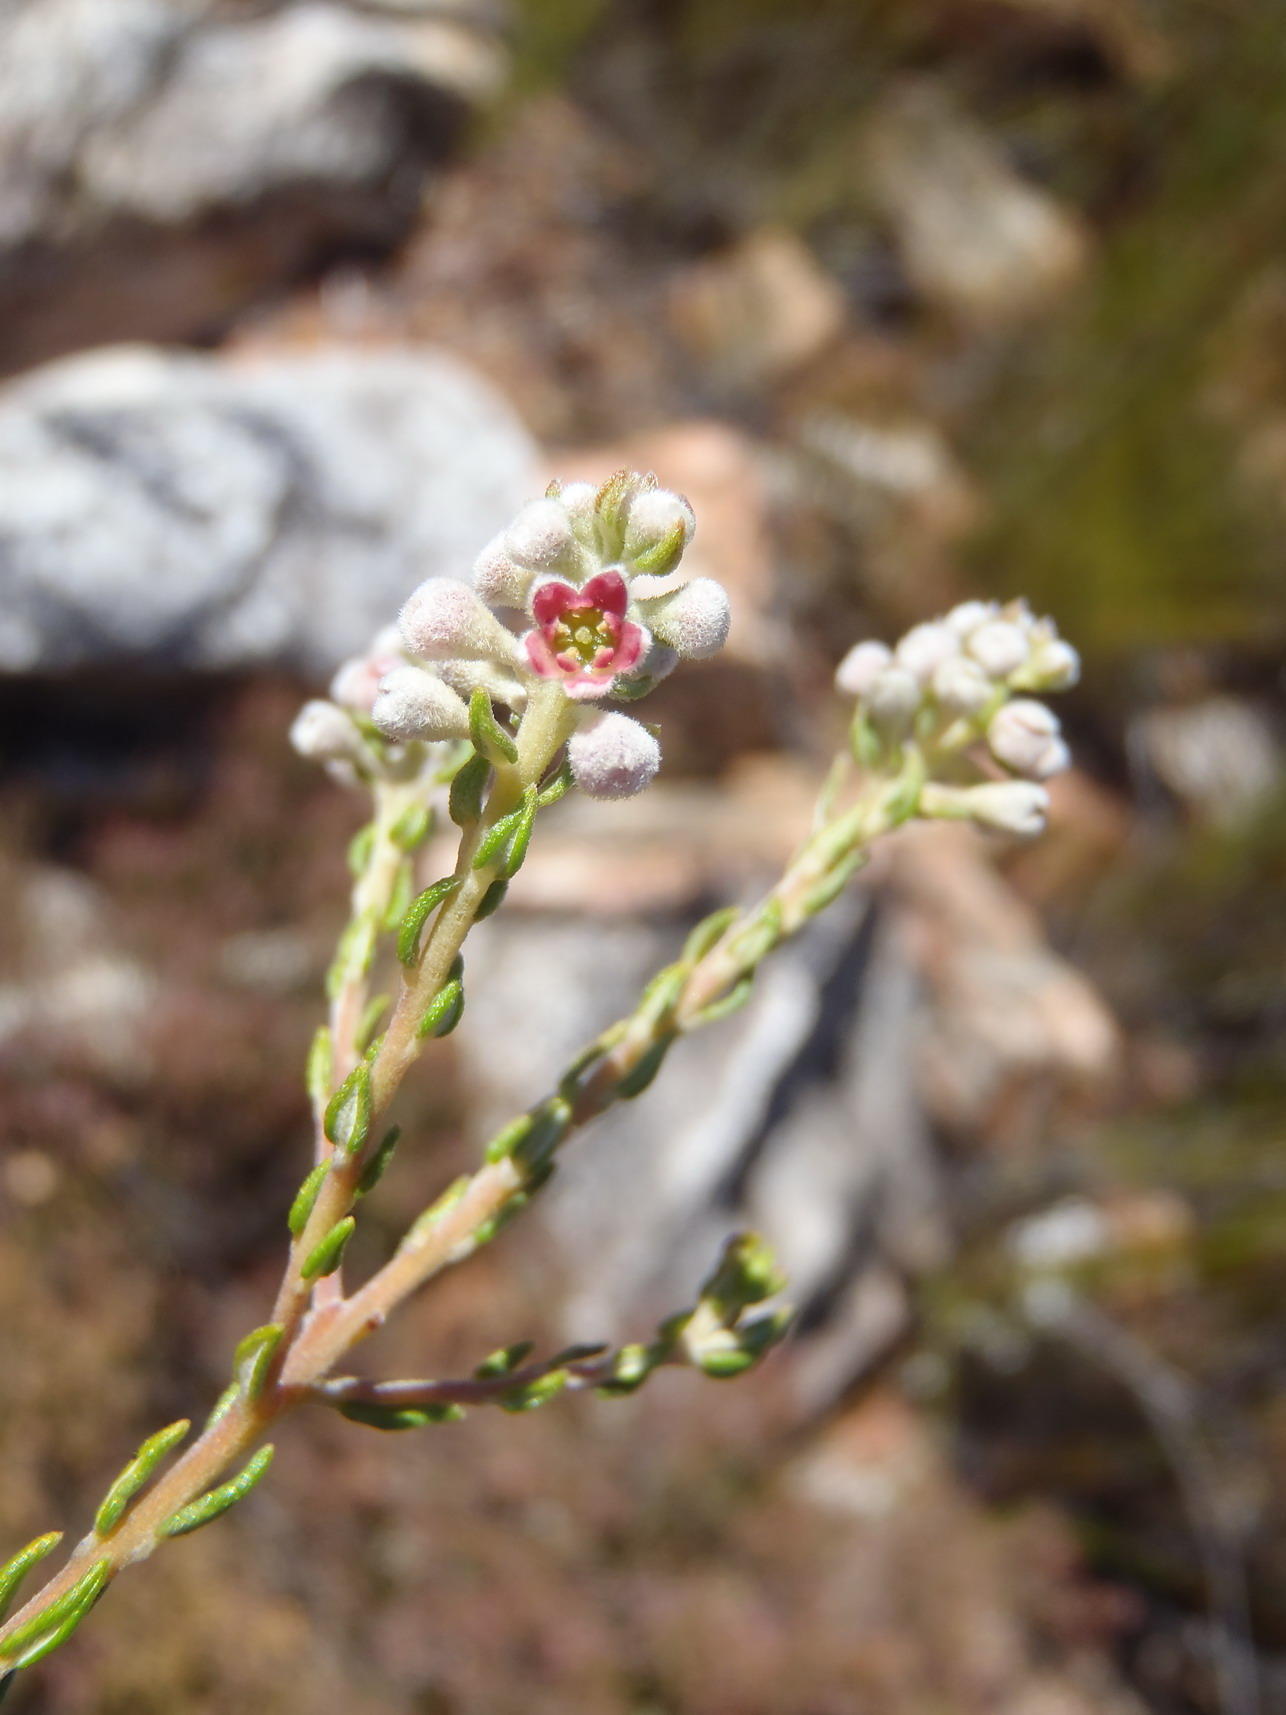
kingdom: Plantae
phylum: Tracheophyta
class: Magnoliopsida
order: Rosales
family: Rhamnaceae
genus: Phylica
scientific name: Phylica axillaris
